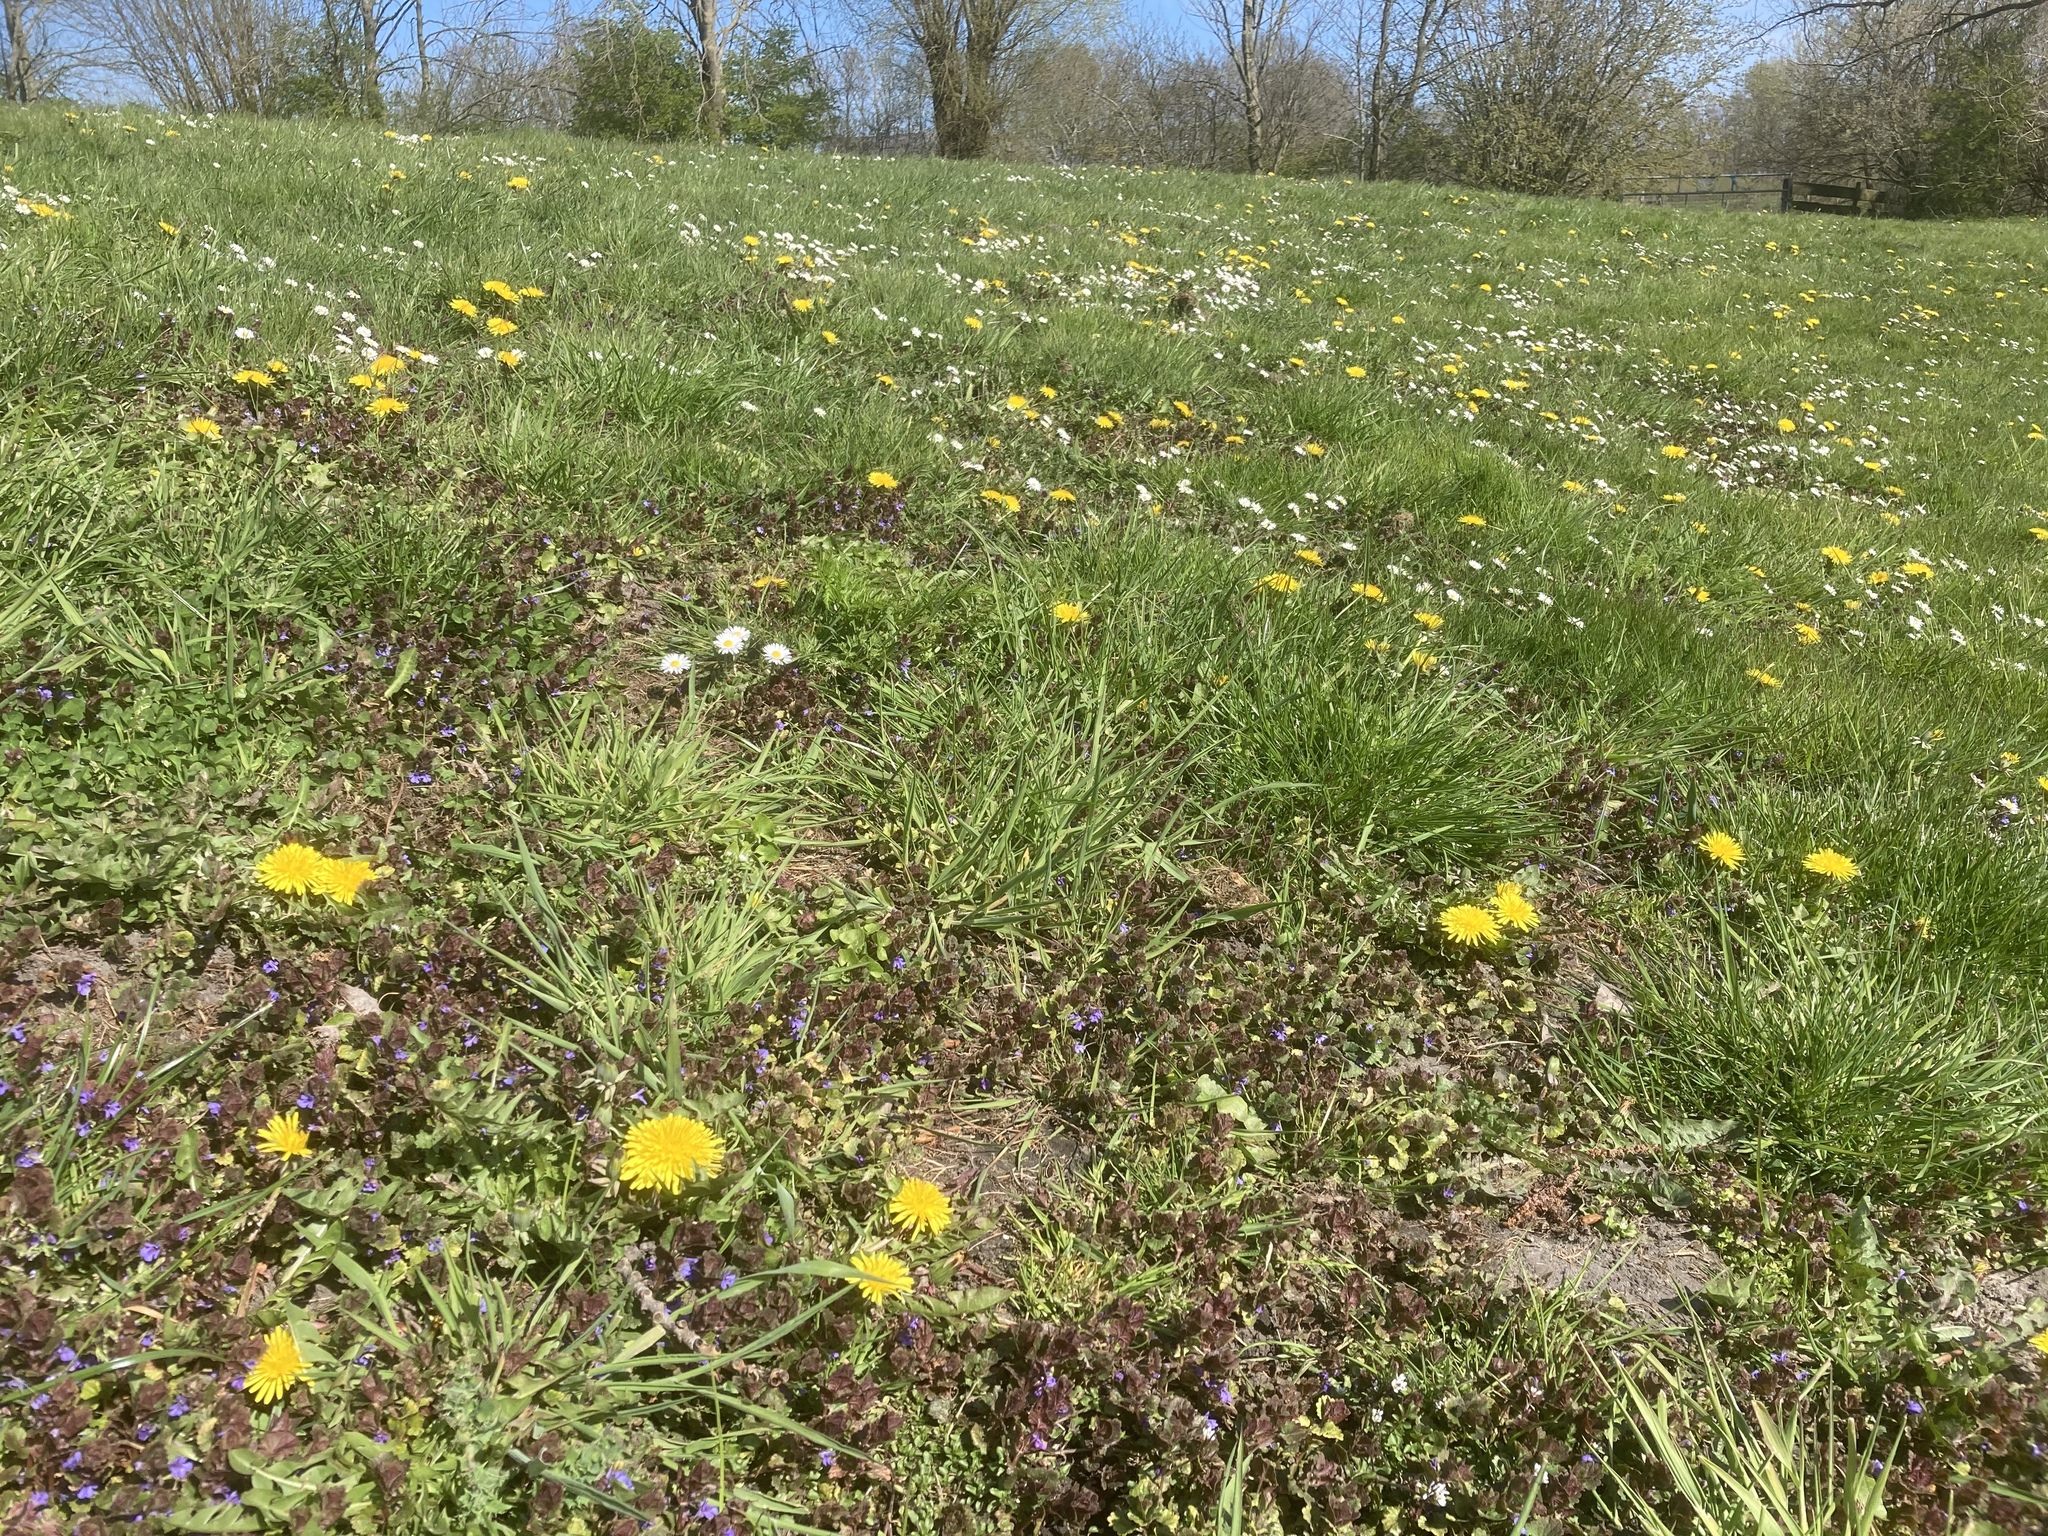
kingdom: Plantae
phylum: Tracheophyta
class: Magnoliopsida
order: Asterales
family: Asteraceae
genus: Bellis
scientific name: Bellis perennis
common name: Lawndaisy
